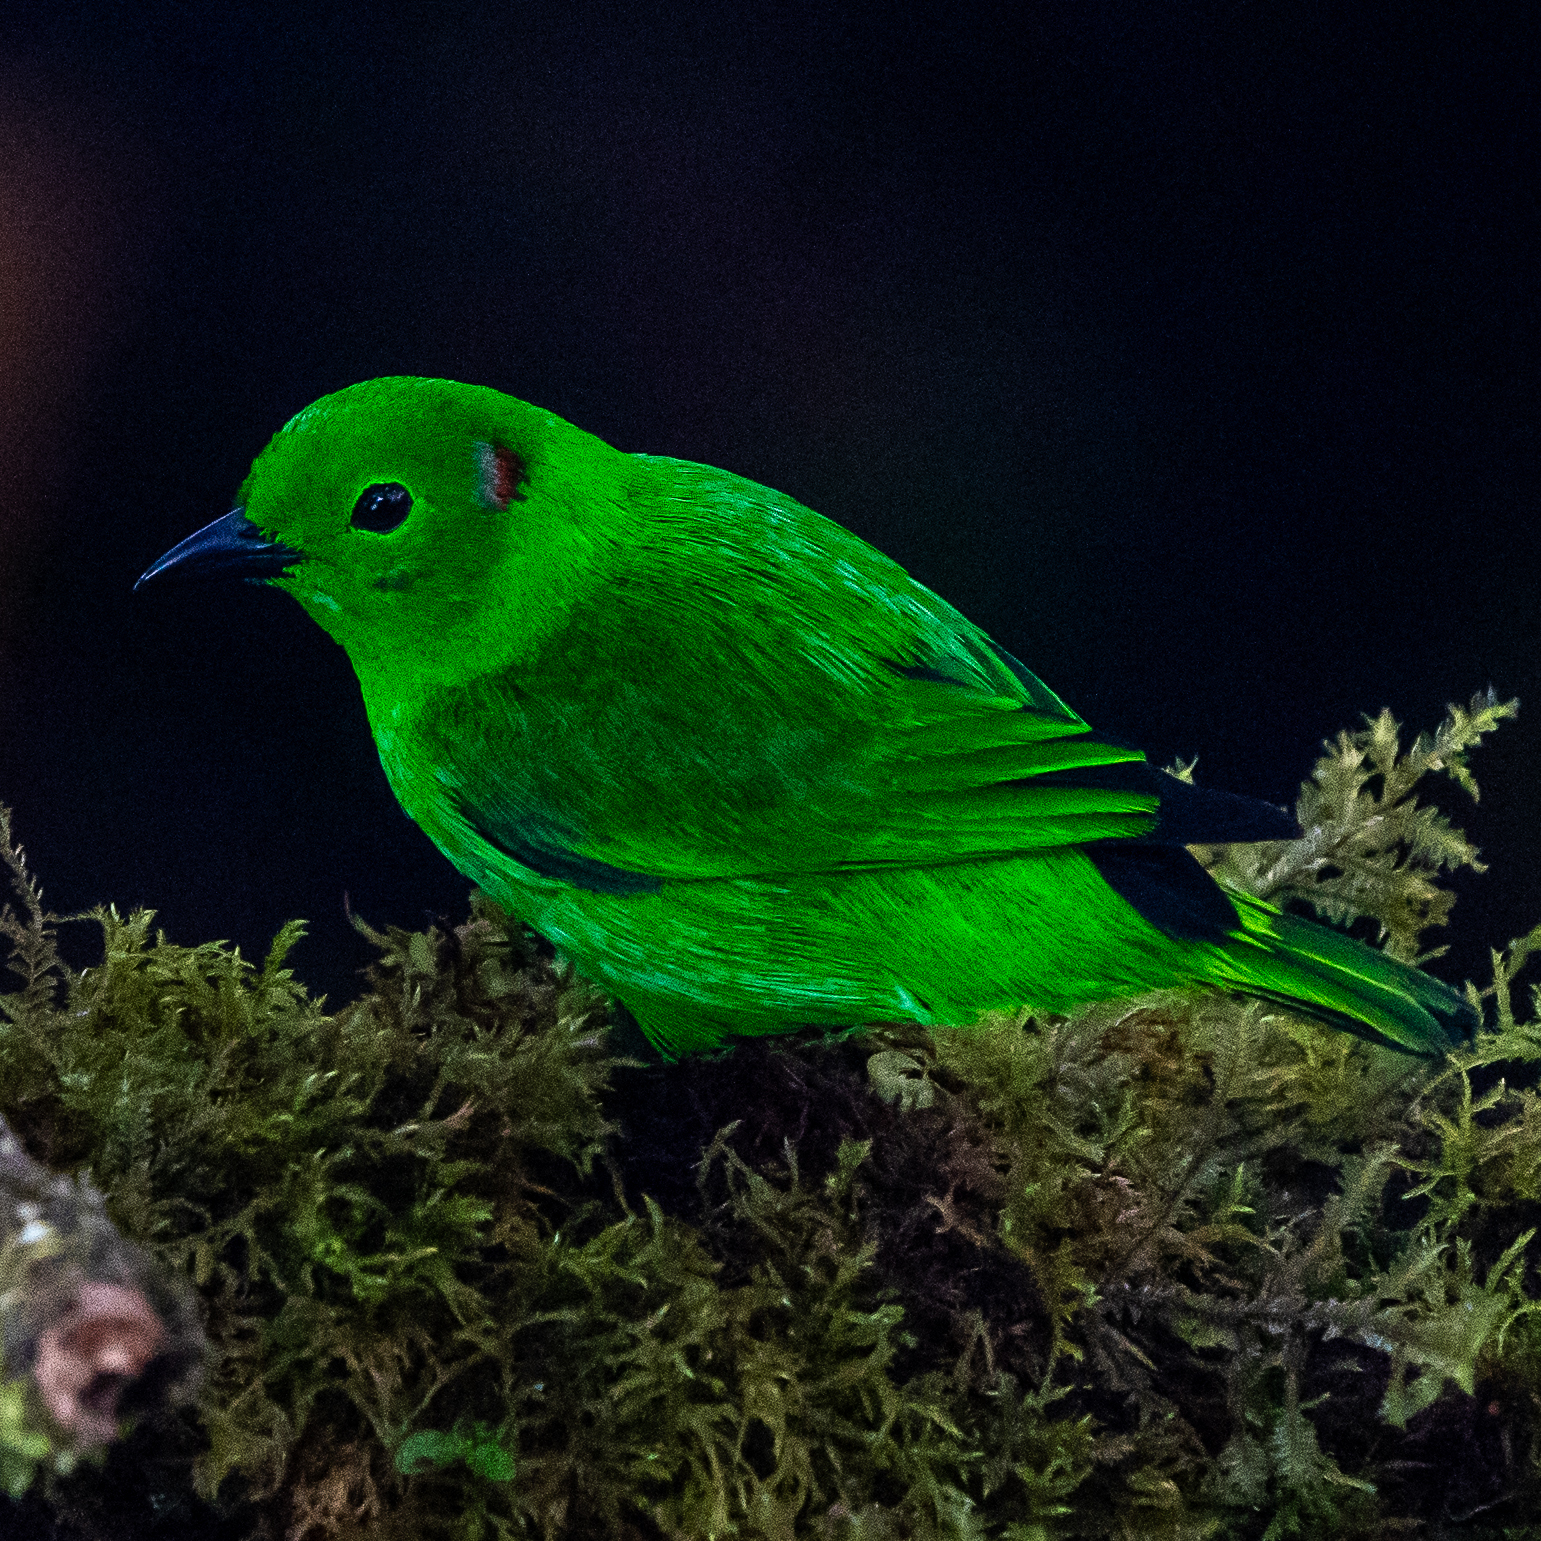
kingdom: Animalia
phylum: Chordata
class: Aves
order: Passeriformes
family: Thraupidae
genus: Chlorochrysa
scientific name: Chlorochrysa phoenicotis
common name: Glistening-green tanager
